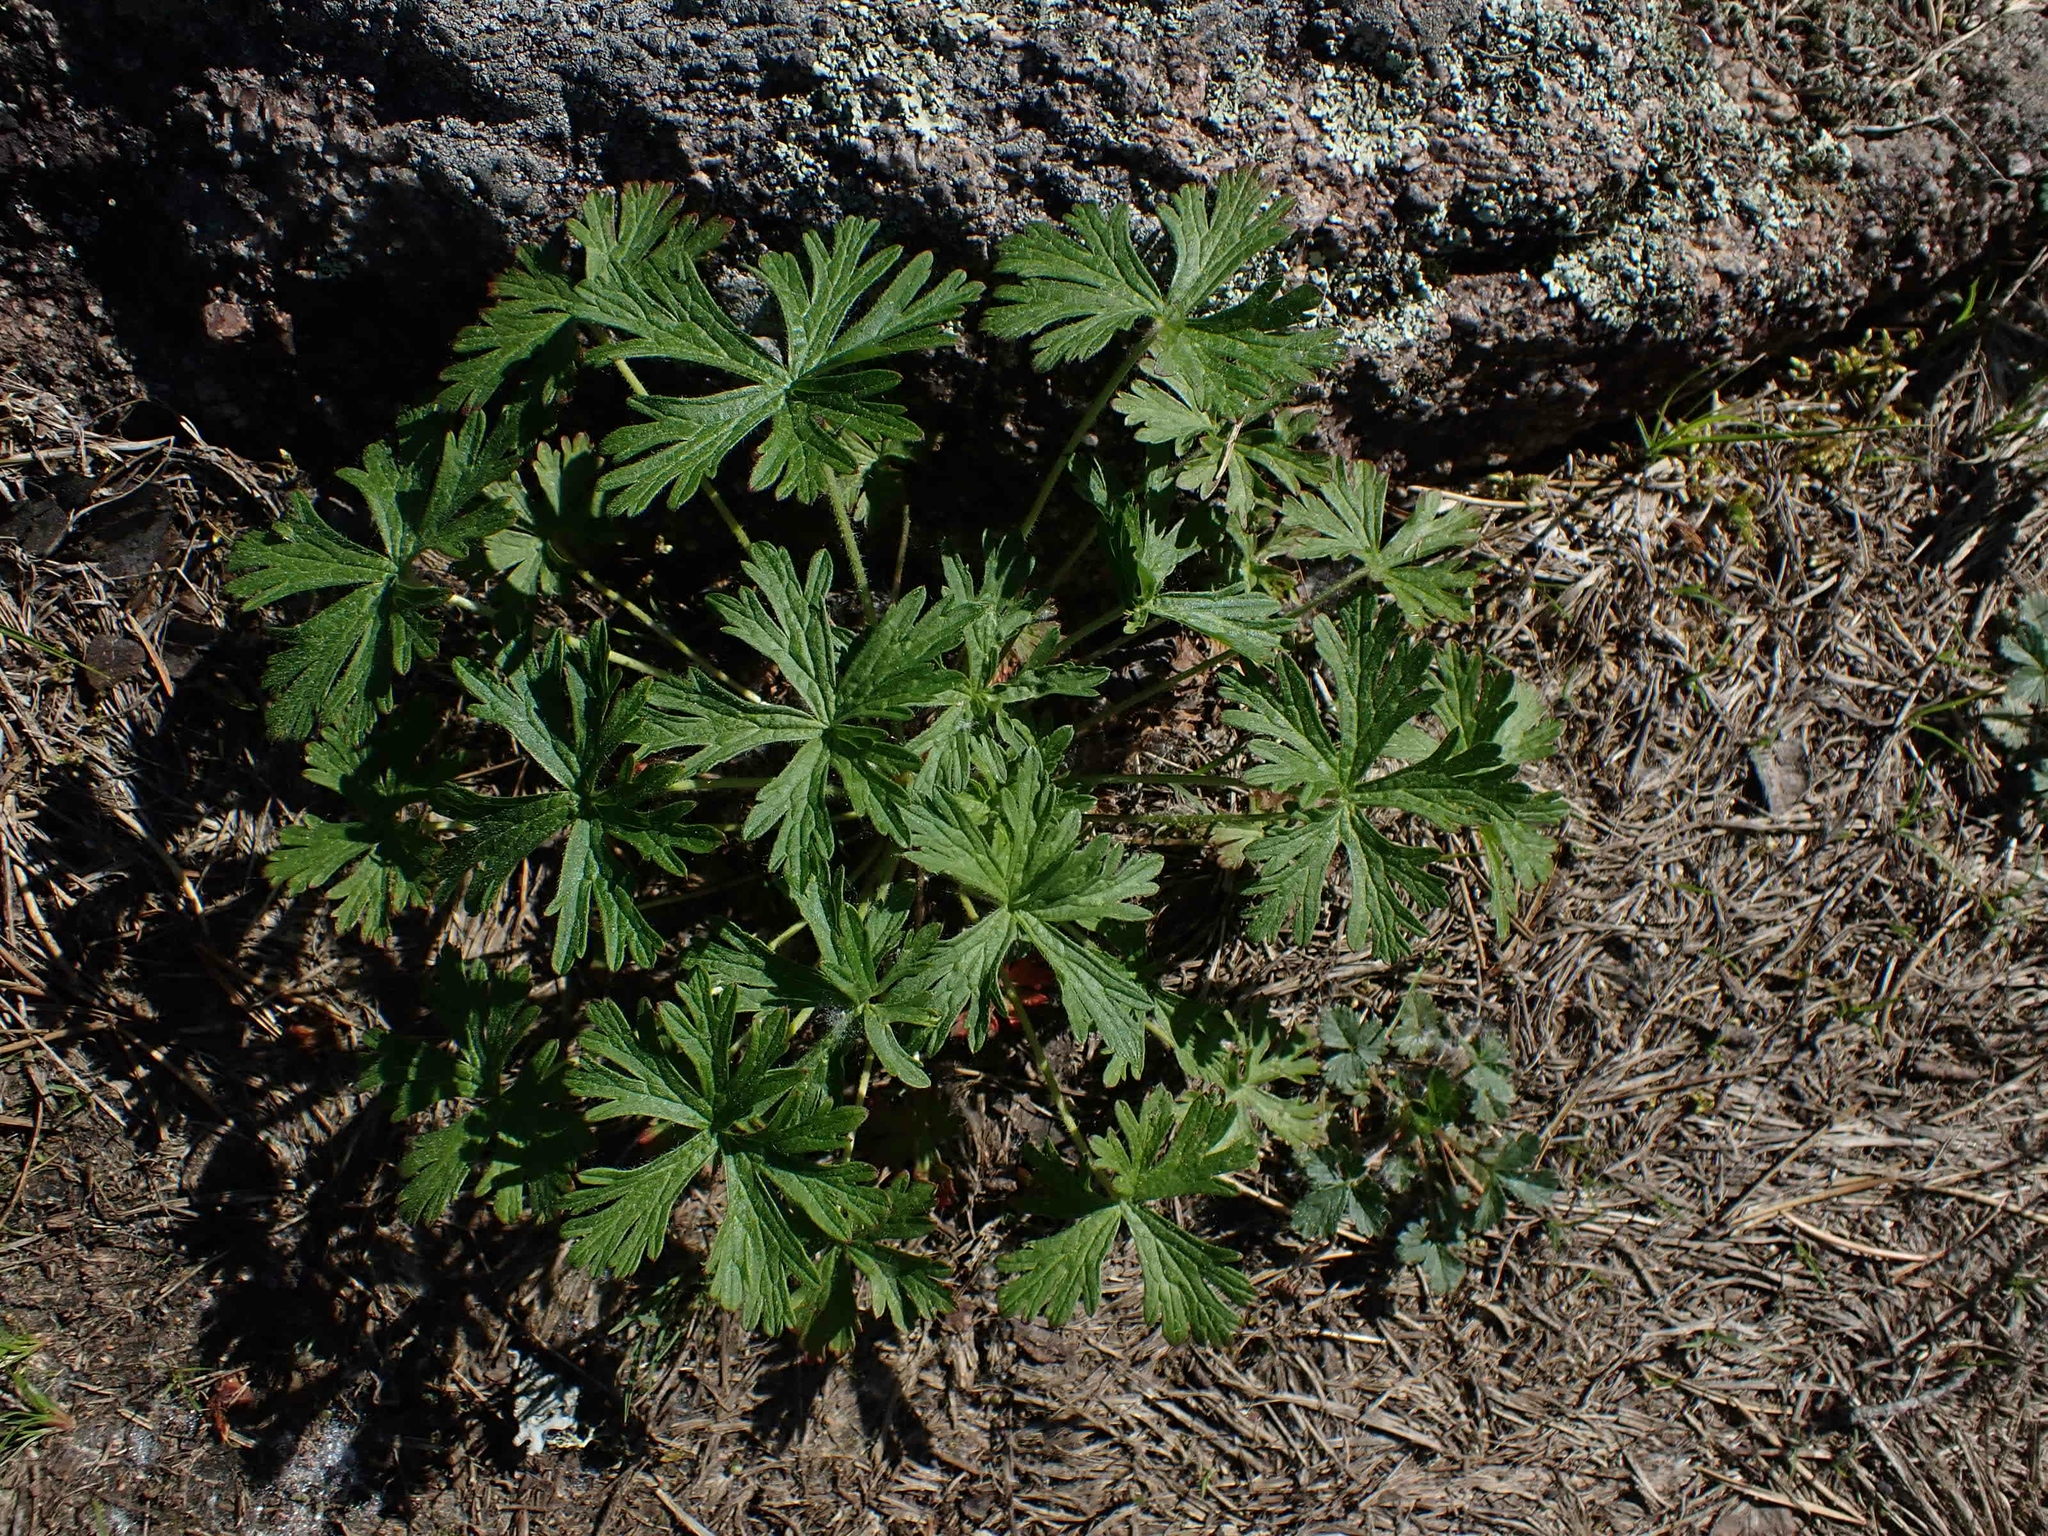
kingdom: Plantae
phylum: Tracheophyta
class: Magnoliopsida
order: Geraniales
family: Geraniaceae
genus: Geranium
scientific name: Geranium bicknellii
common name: Bicknell's cranesbill
